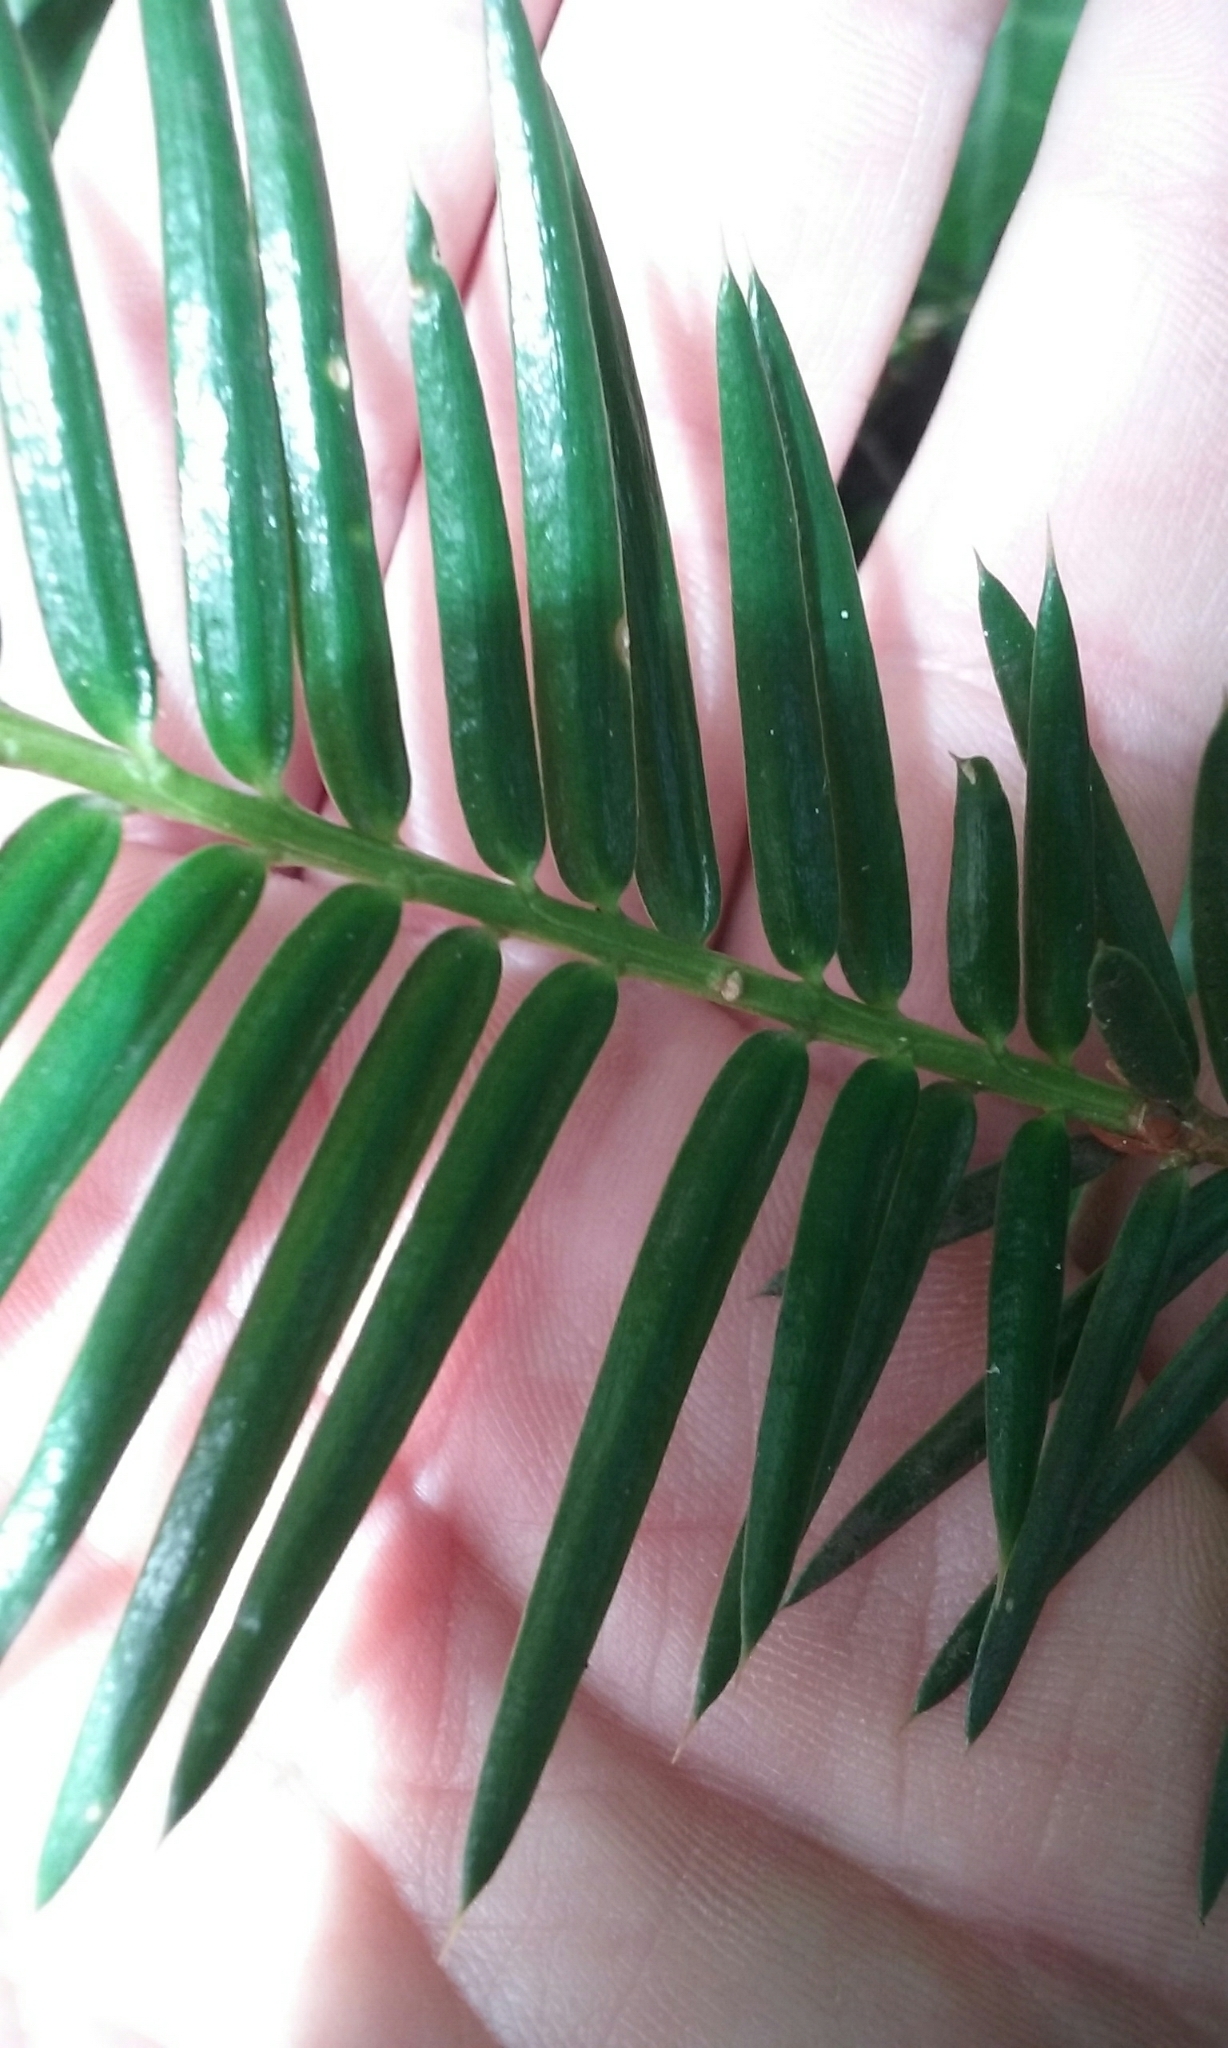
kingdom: Plantae
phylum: Tracheophyta
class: Pinopsida
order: Pinales
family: Taxaceae
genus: Torreya
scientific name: Torreya californica
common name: California torreya
